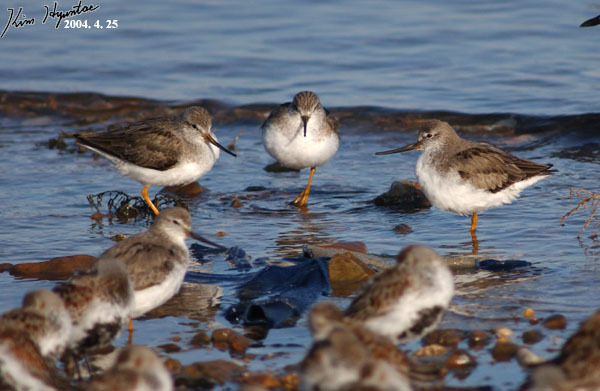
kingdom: Animalia
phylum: Chordata
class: Aves
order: Charadriiformes
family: Scolopacidae
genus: Xenus
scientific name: Xenus cinereus
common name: Terek sandpiper
